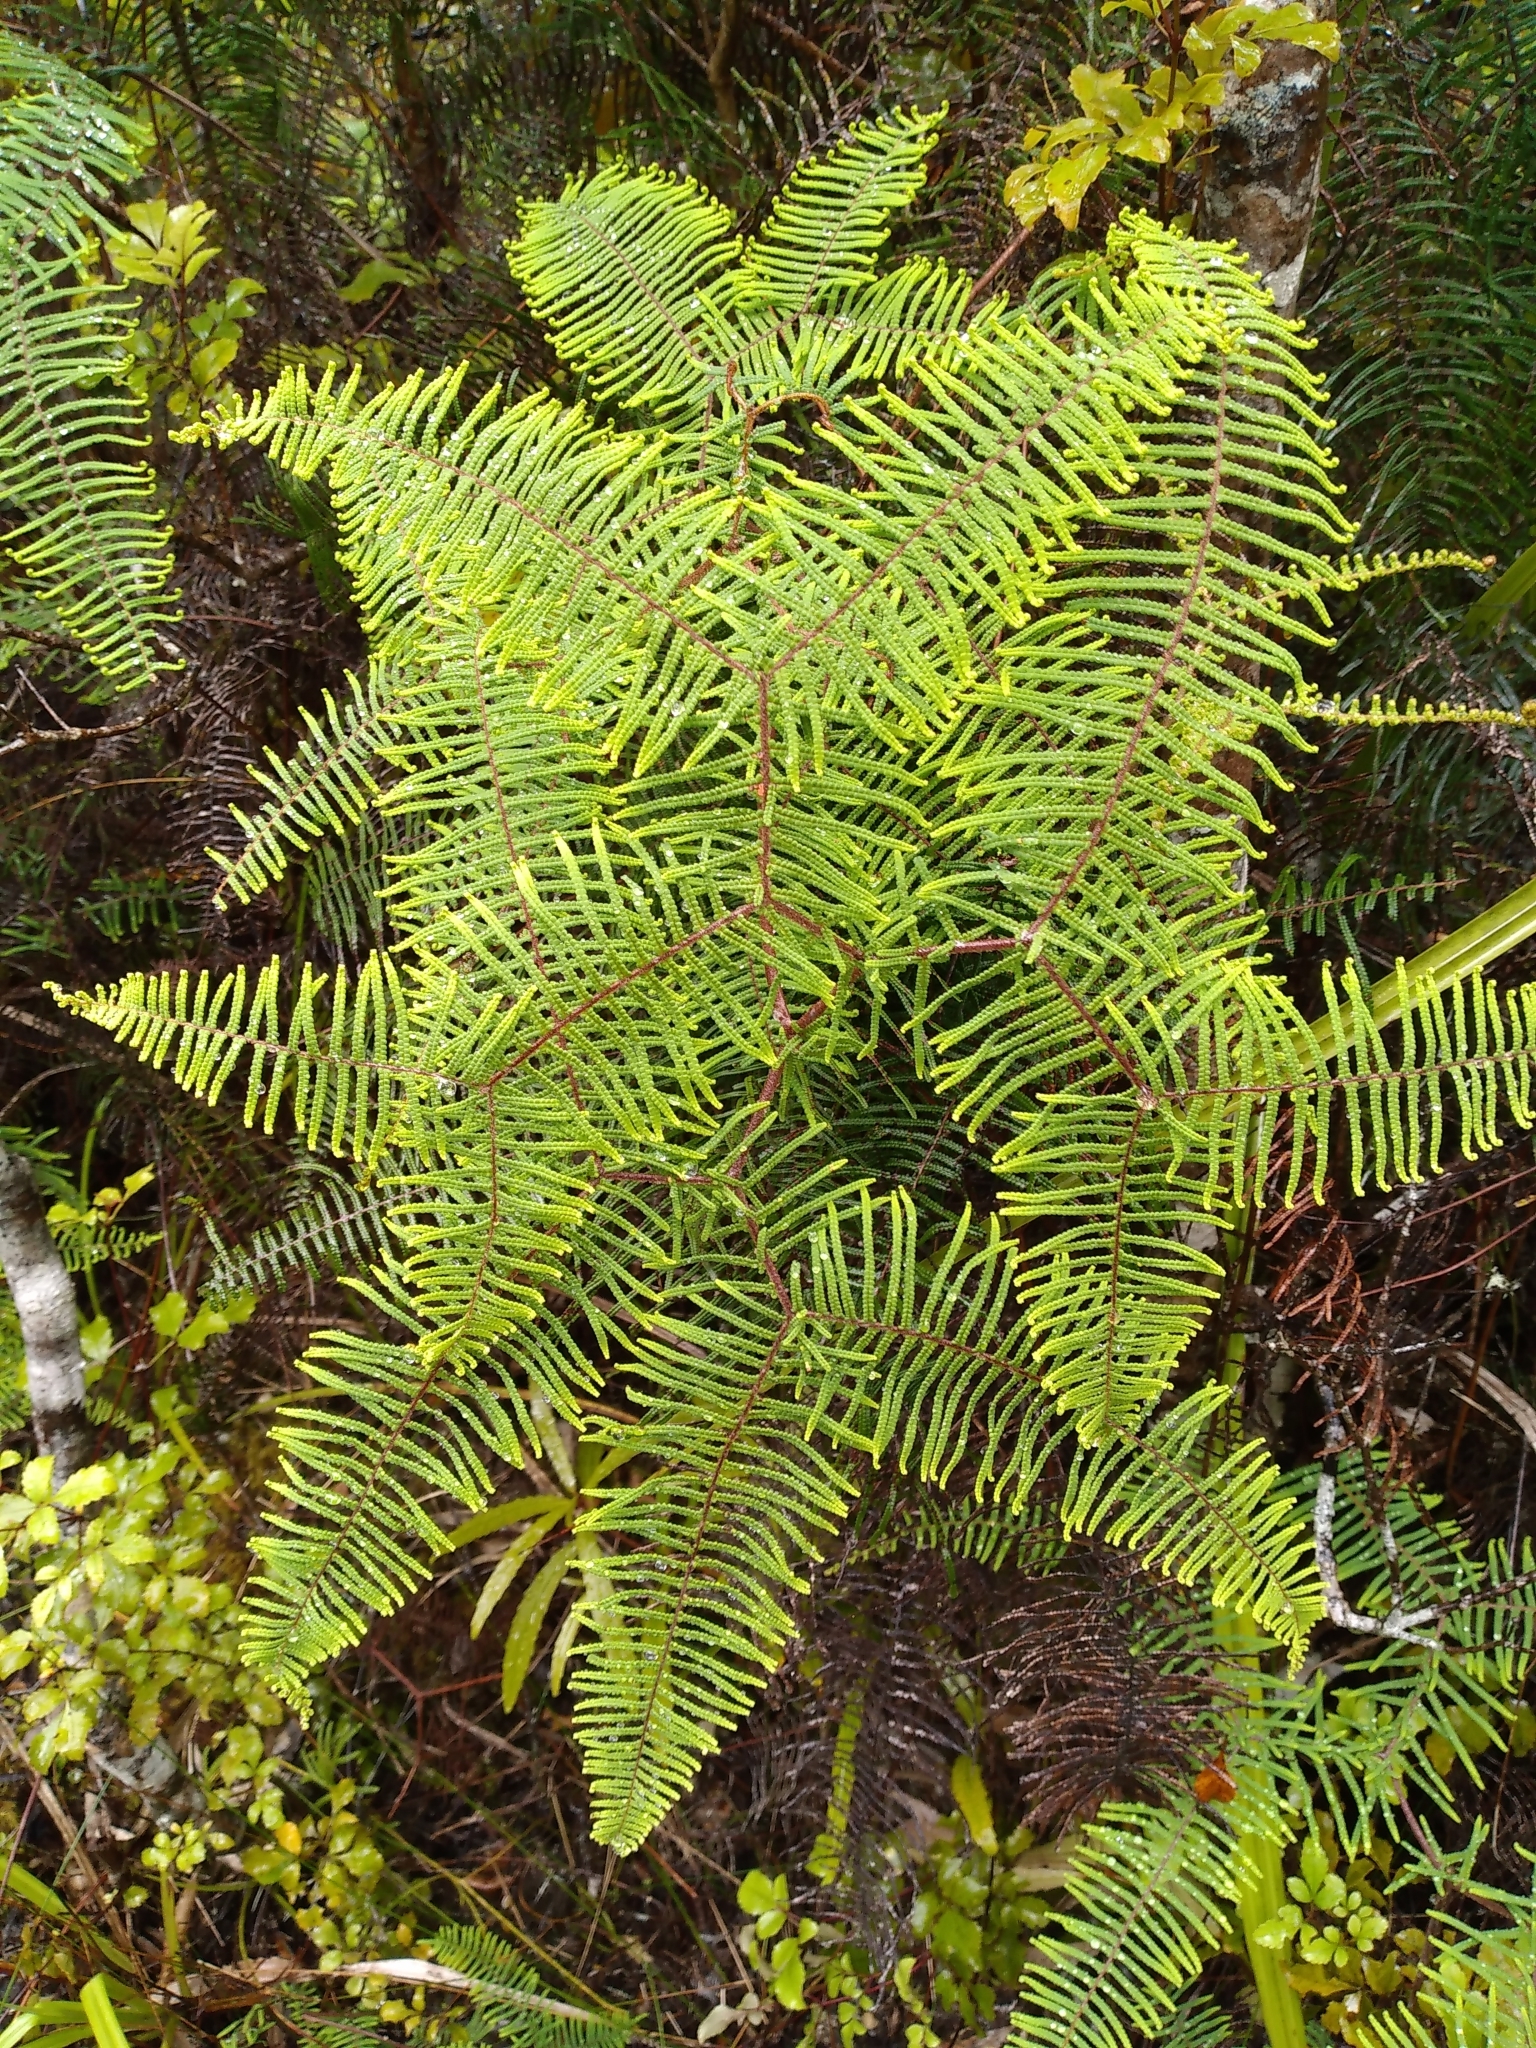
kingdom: Plantae
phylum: Tracheophyta
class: Polypodiopsida
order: Gleicheniales
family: Gleicheniaceae
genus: Gleichenia
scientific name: Gleichenia dicarpa
